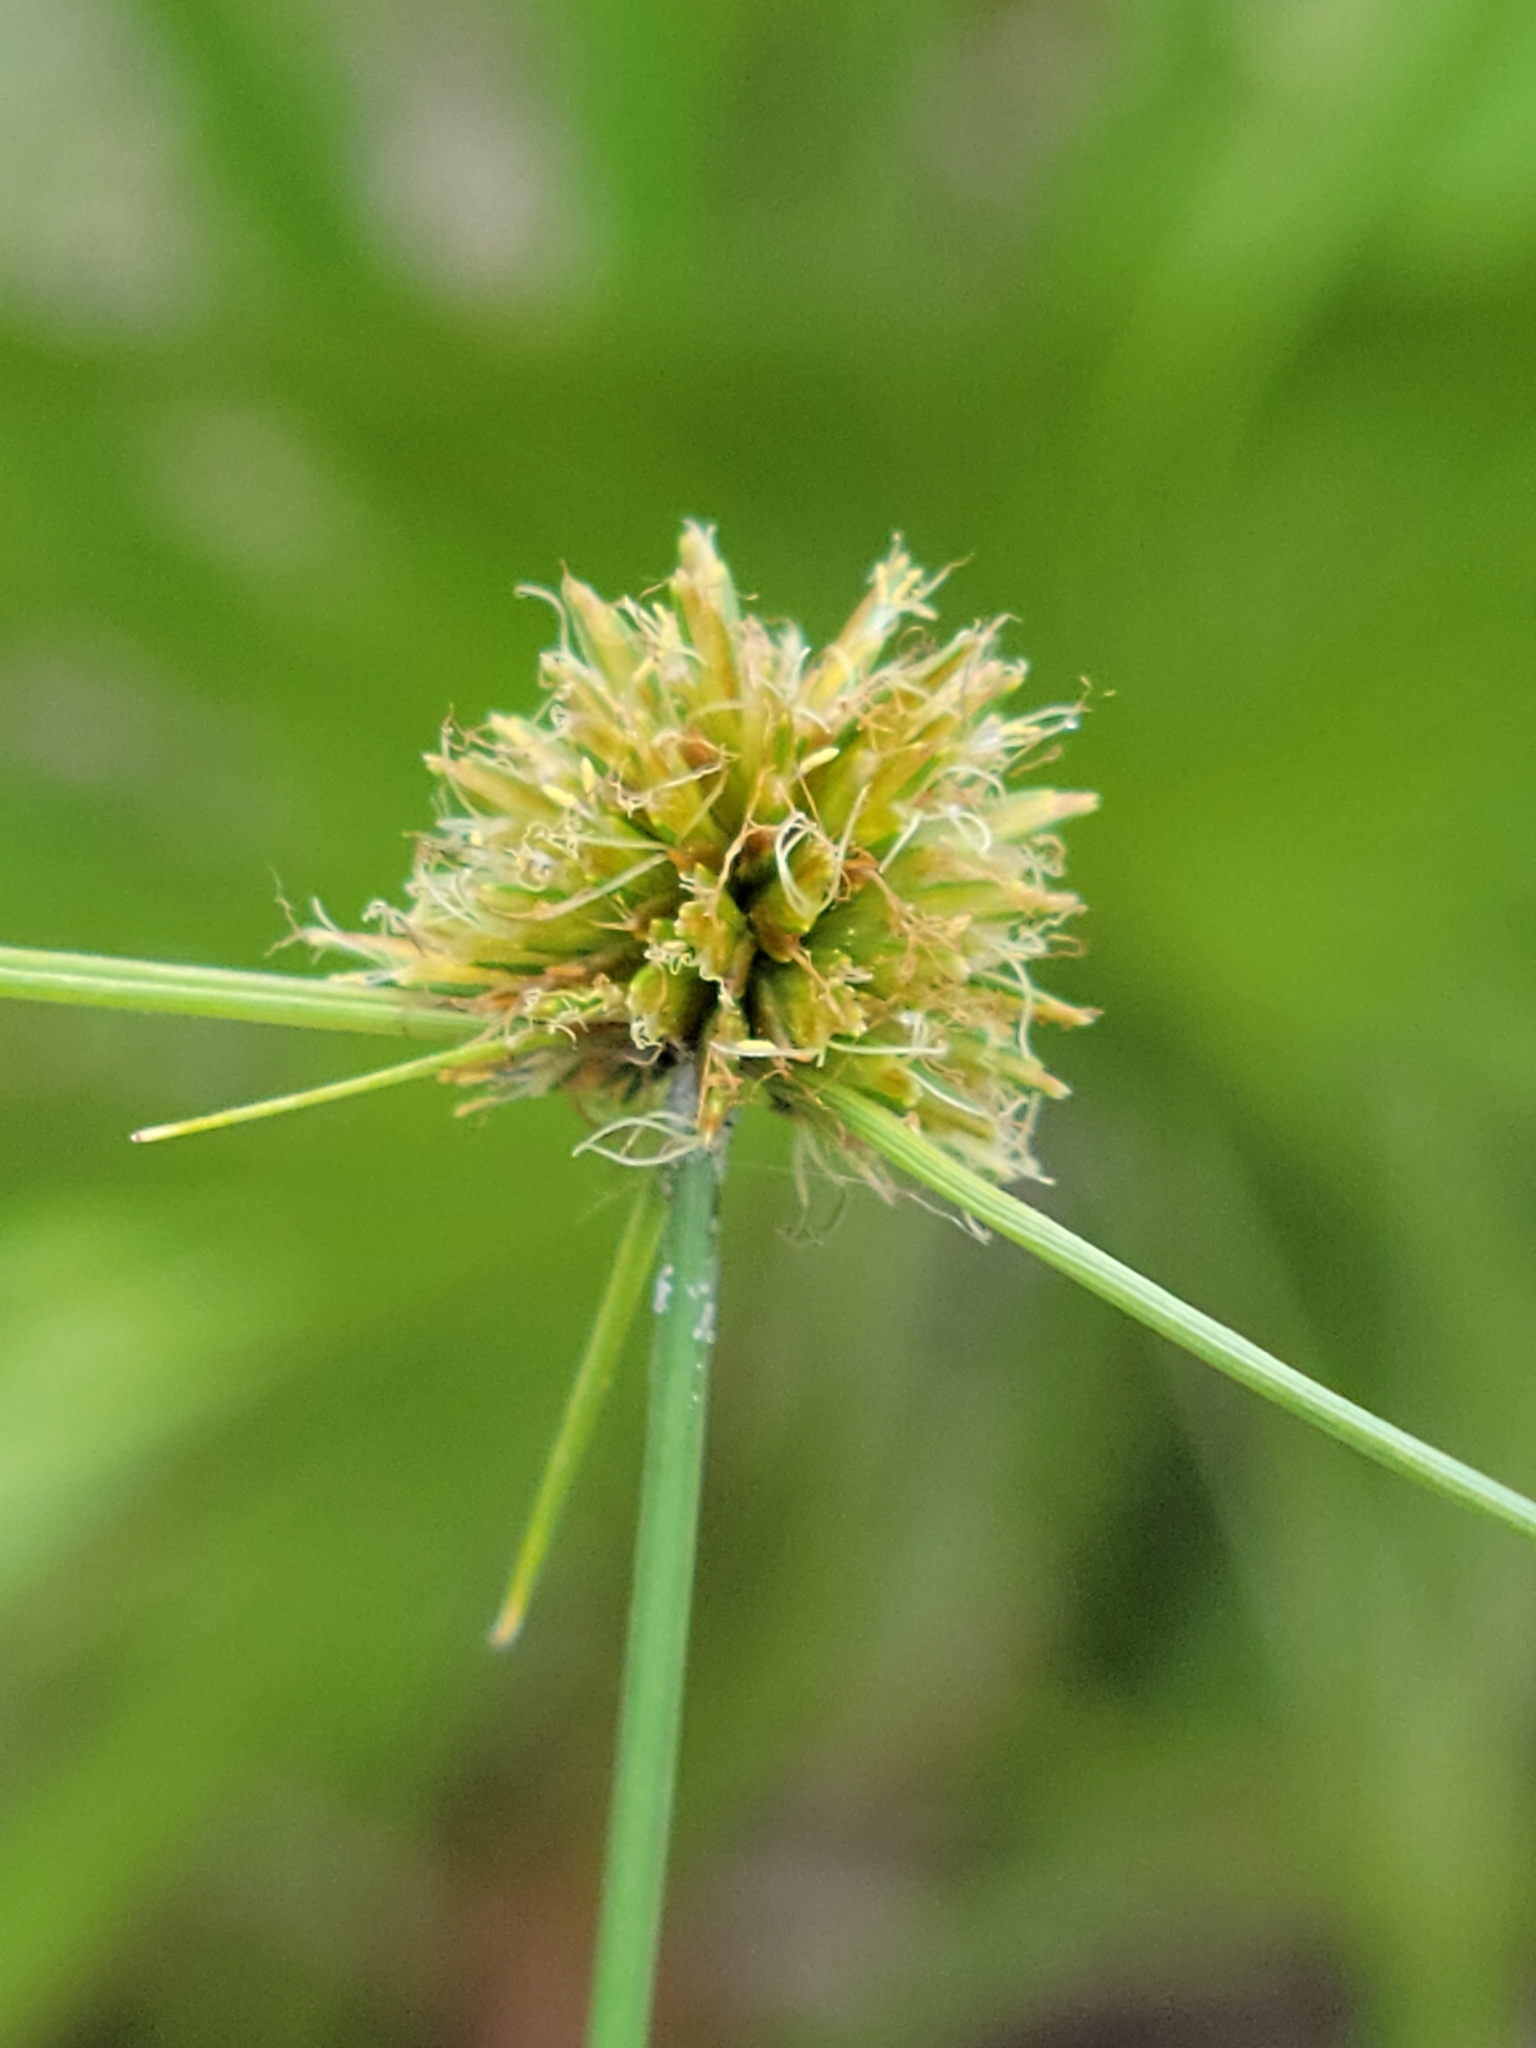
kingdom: Plantae
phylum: Tracheophyta
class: Liliopsida
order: Poales
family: Cyperaceae
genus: Cyperus
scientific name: Cyperus filiculmis
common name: Slender sand sedge
